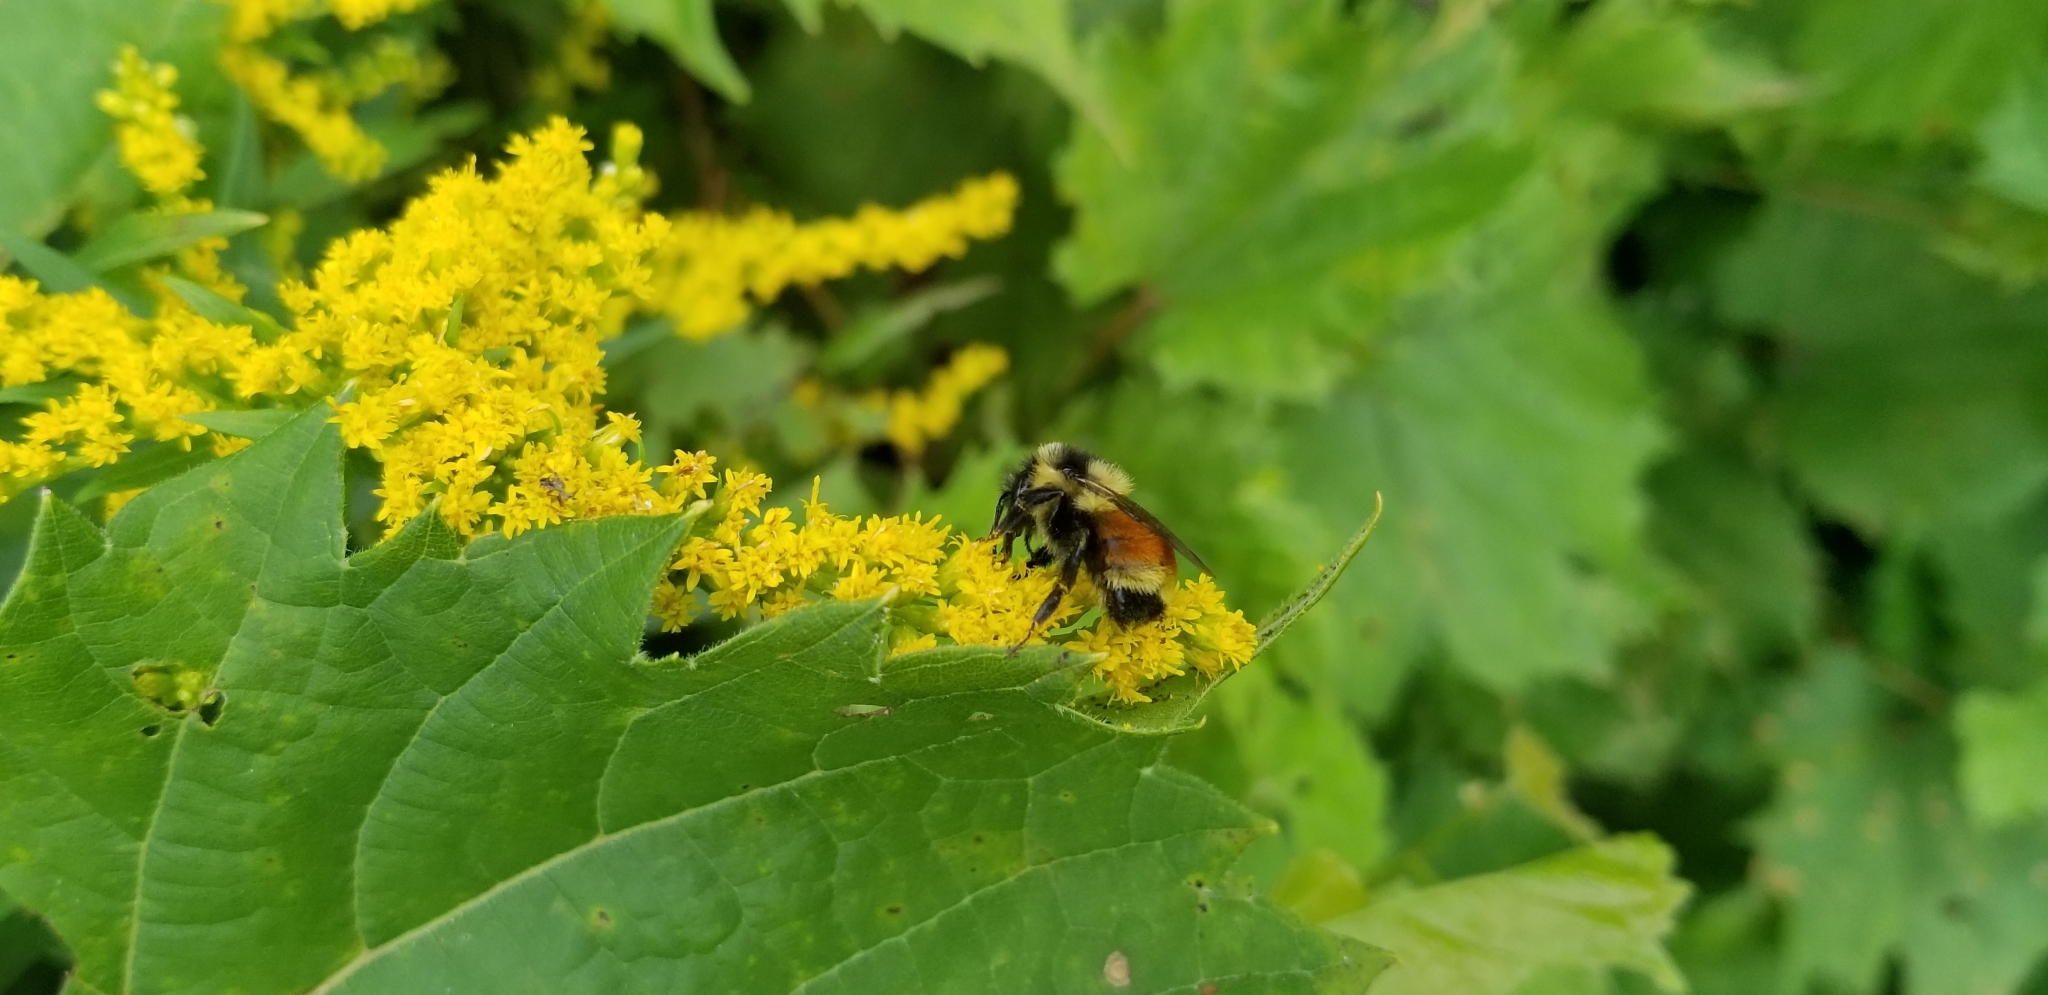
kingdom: Animalia
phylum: Arthropoda
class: Insecta
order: Hymenoptera
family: Apidae
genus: Bombus
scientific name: Bombus ternarius
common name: Tri-colored bumble bee
